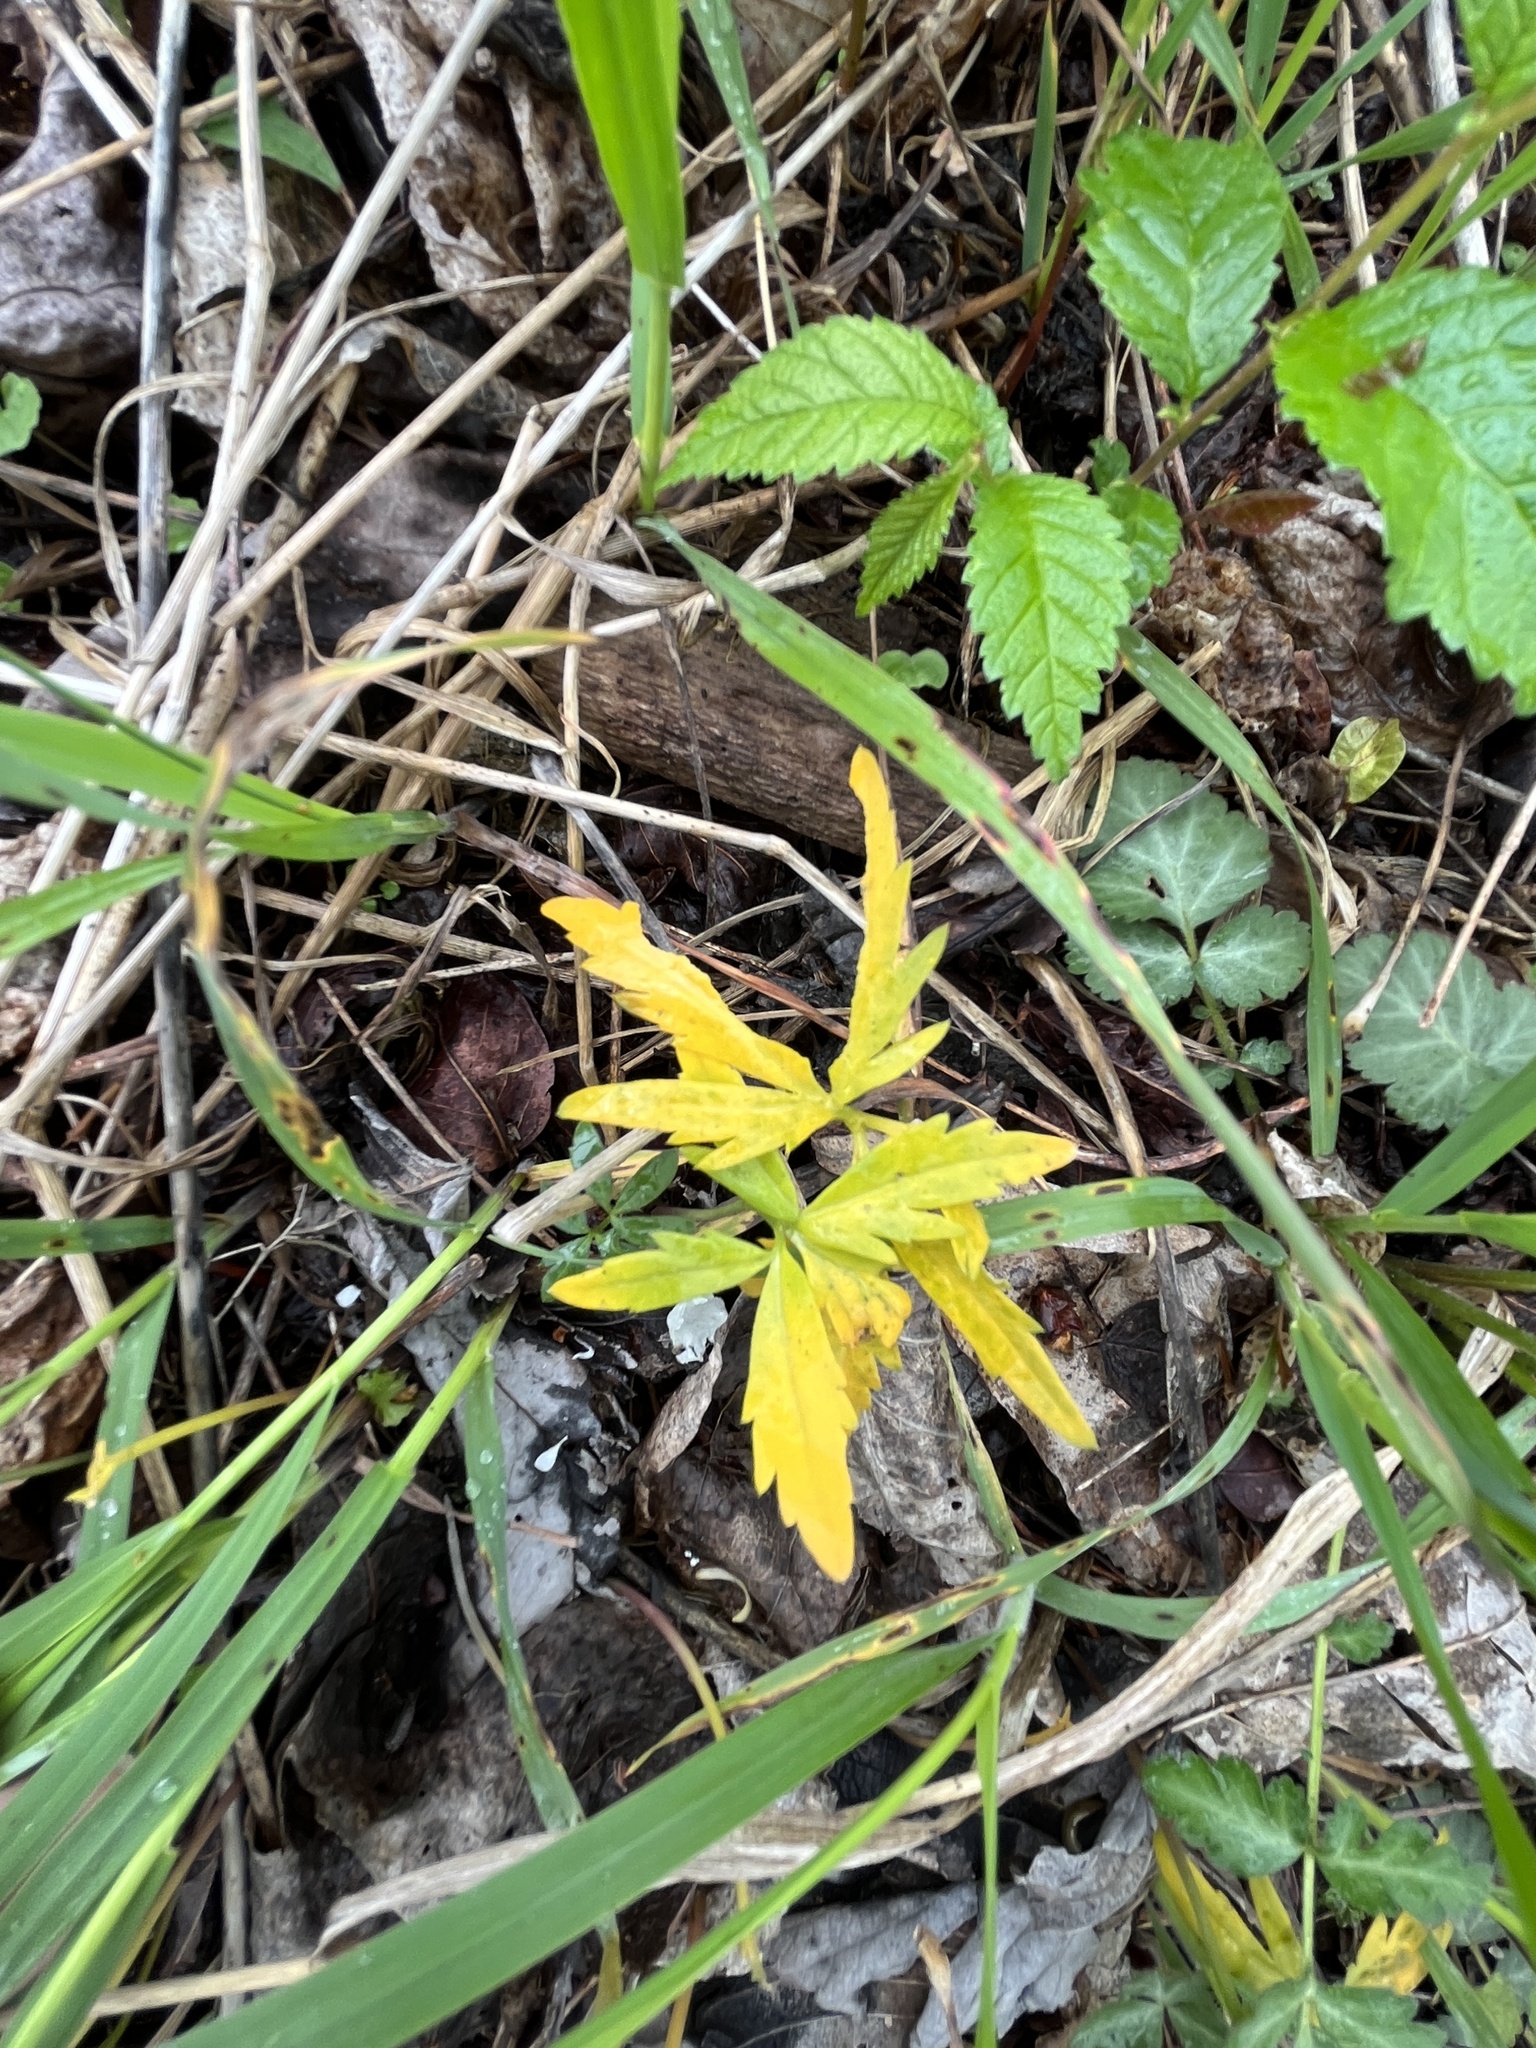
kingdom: Plantae
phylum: Tracheophyta
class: Magnoliopsida
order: Brassicales
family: Brassicaceae
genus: Cardamine
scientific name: Cardamine concatenata
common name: Cut-leaf toothcup
